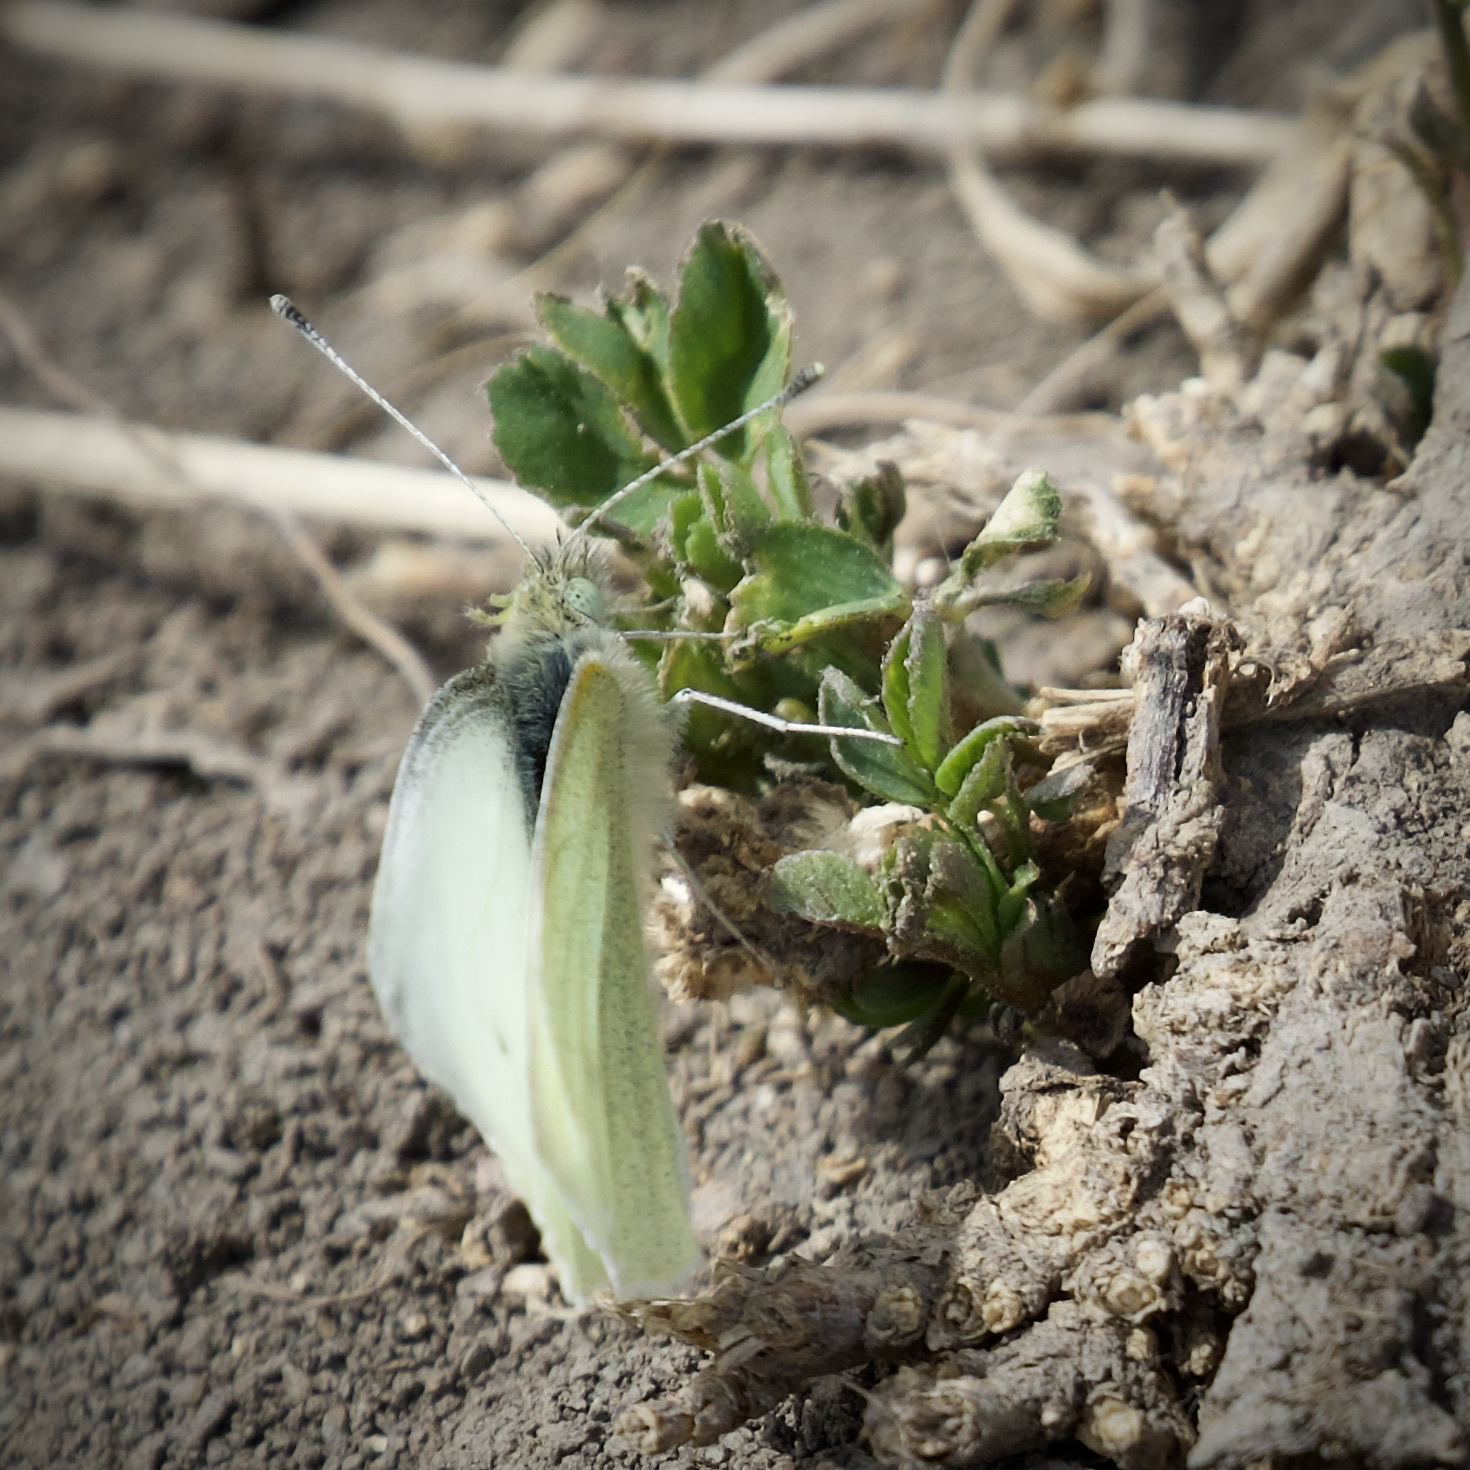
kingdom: Animalia
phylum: Arthropoda
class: Insecta
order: Lepidoptera
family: Pieridae
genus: Pieris
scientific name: Pieris rapae
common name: Small white
